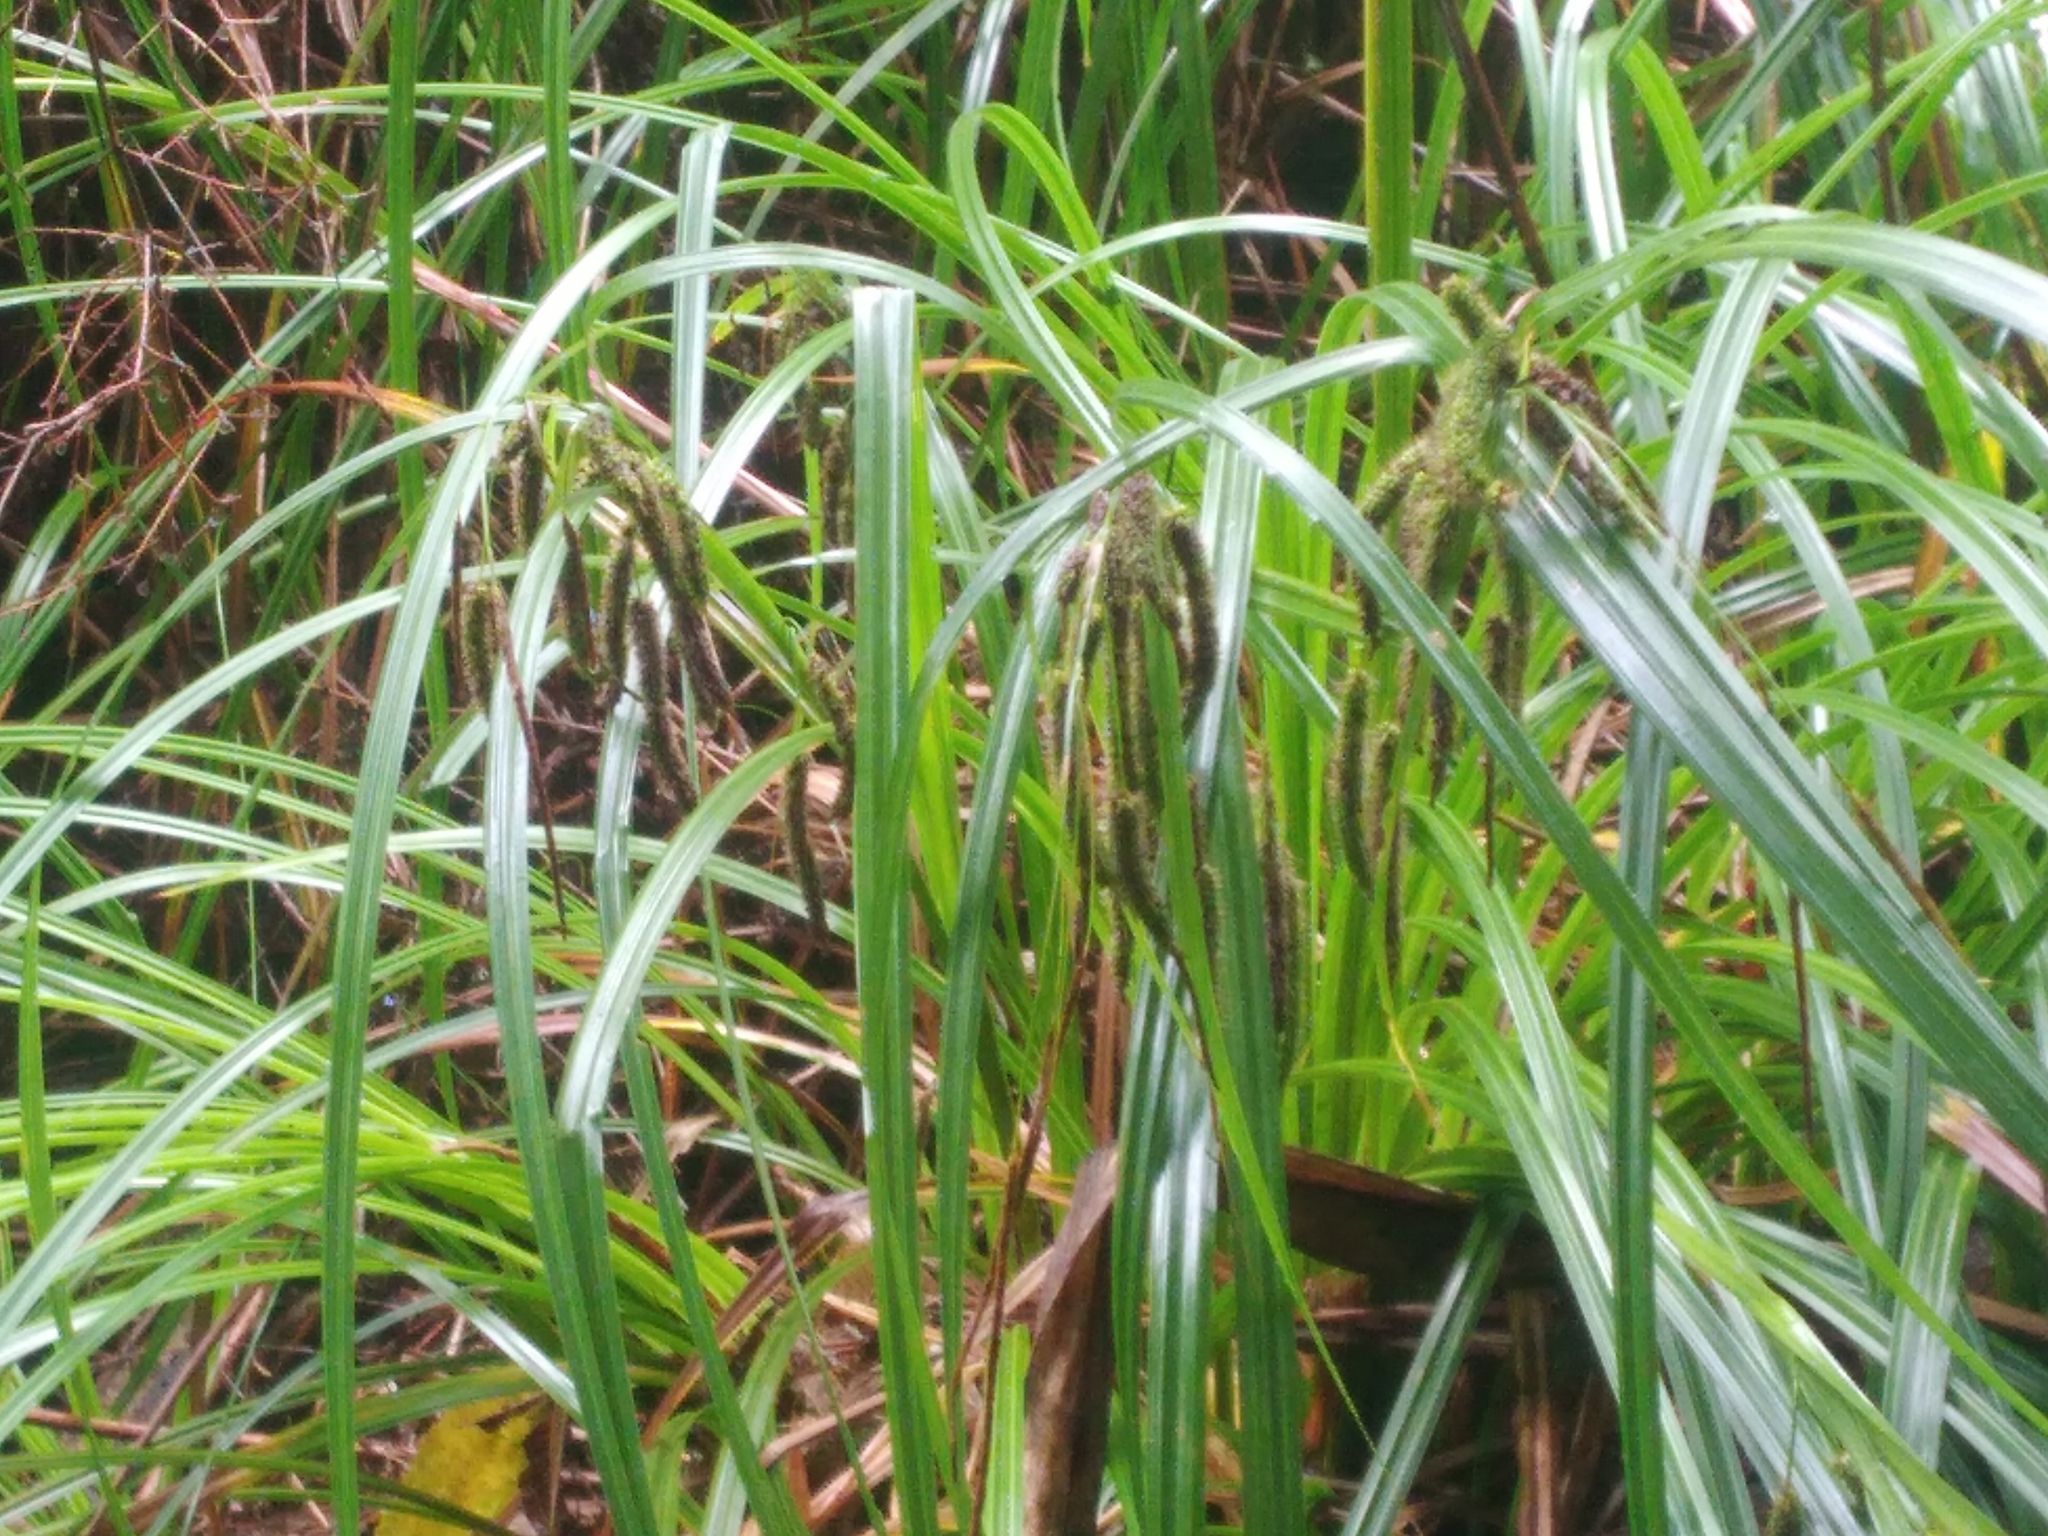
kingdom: Plantae
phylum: Tracheophyta
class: Liliopsida
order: Poales
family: Cyperaceae
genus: Carex
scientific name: Carex geminata
